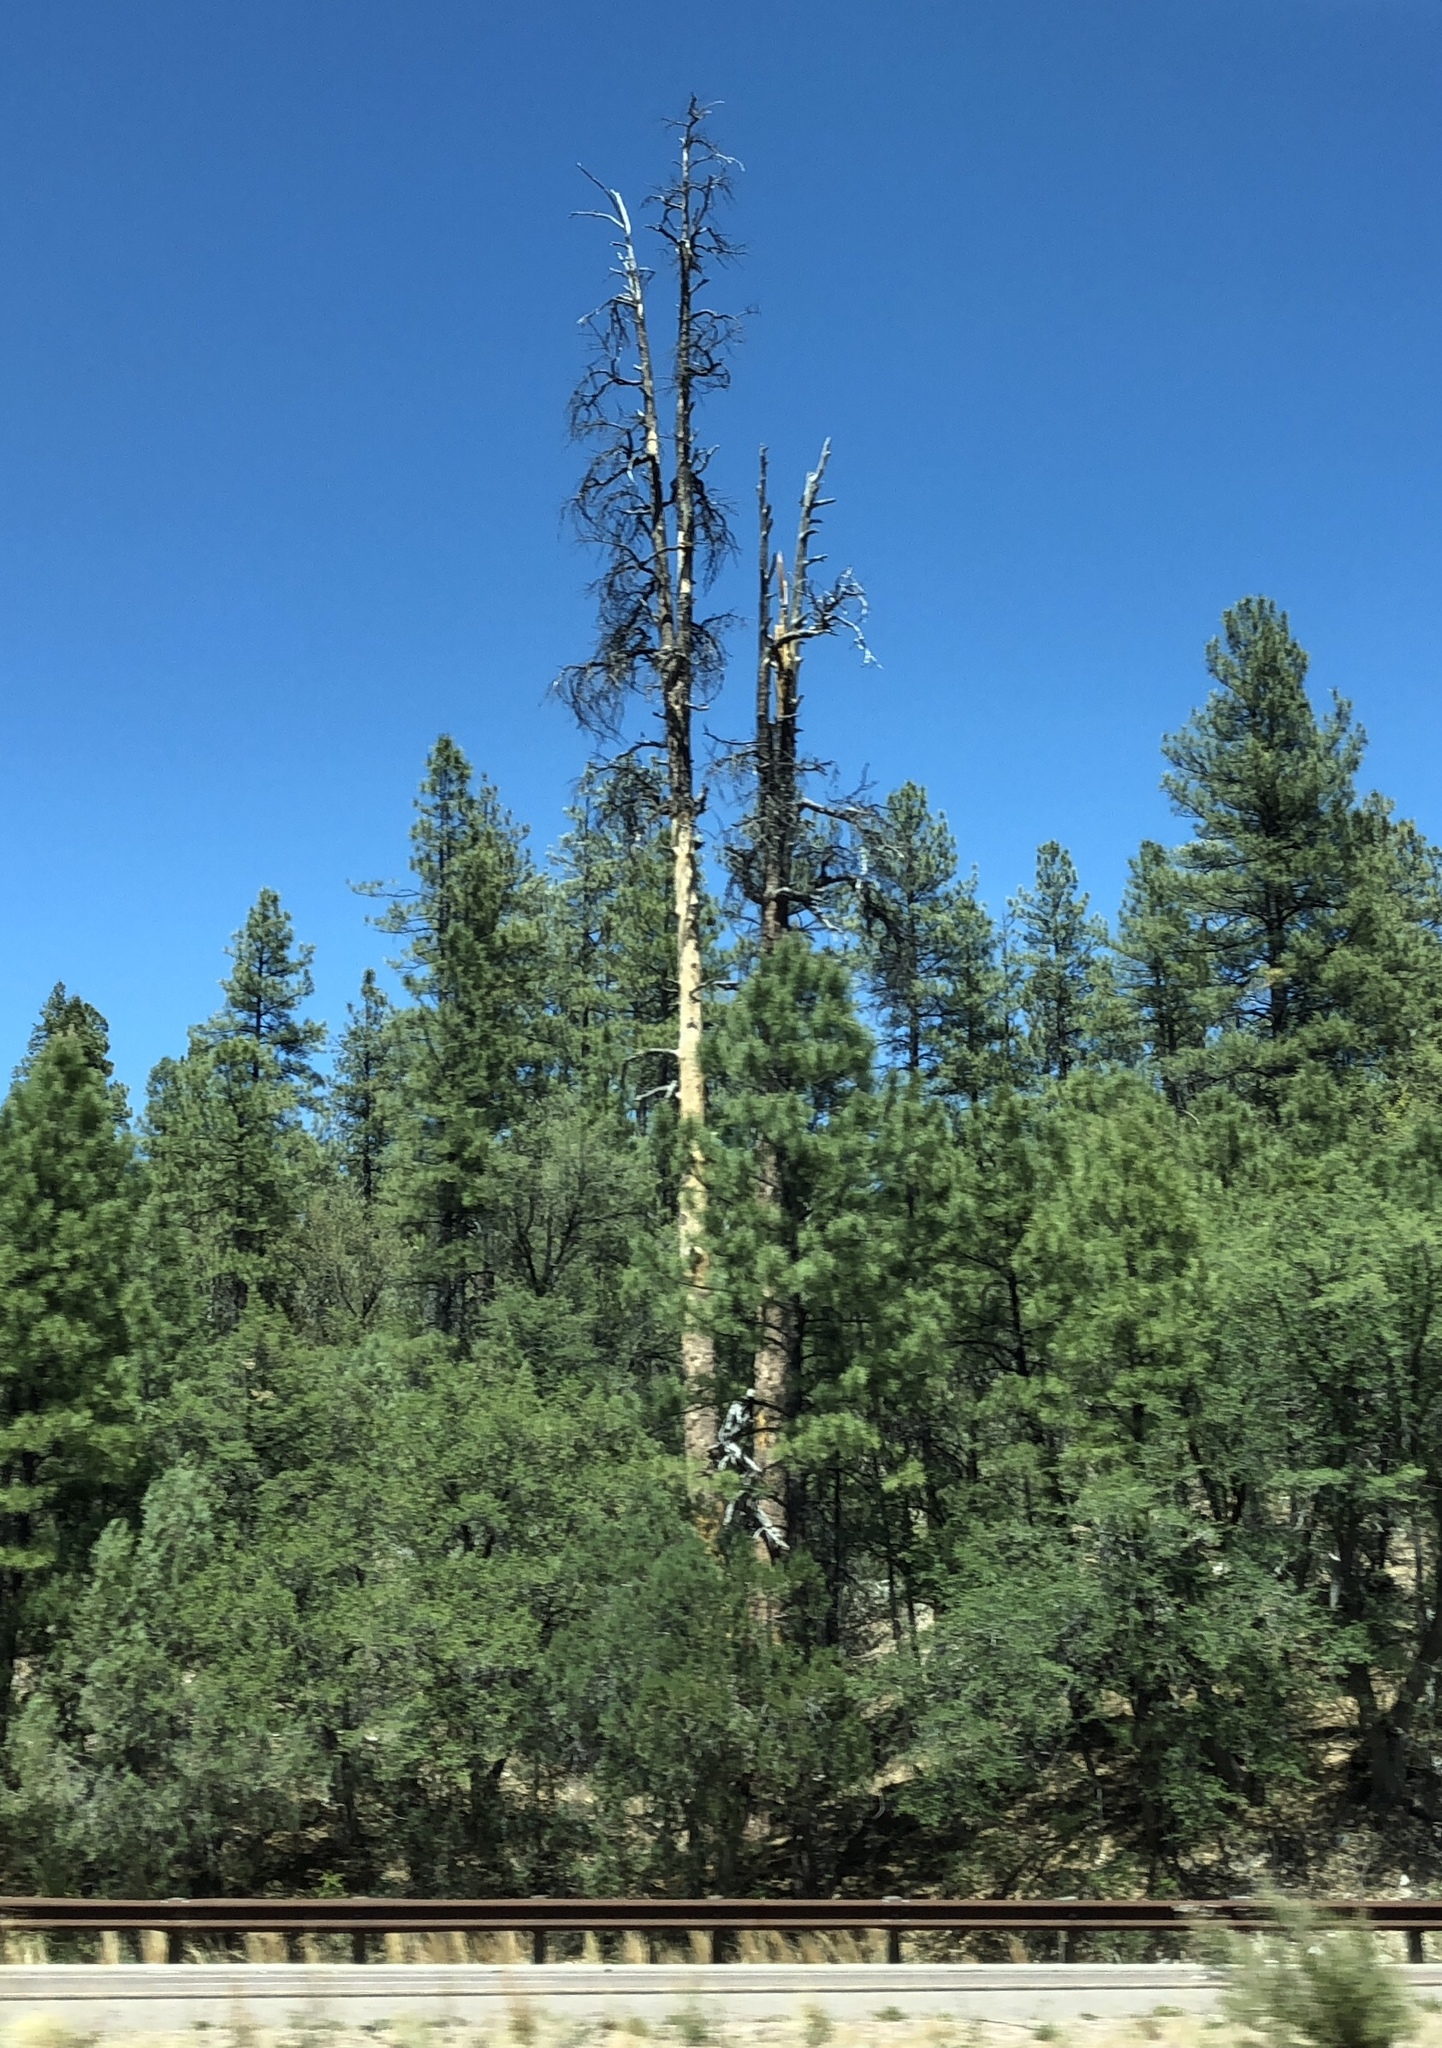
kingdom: Plantae
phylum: Tracheophyta
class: Pinopsida
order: Pinales
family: Pinaceae
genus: Pinus
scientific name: Pinus ponderosa
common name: Western yellow-pine
